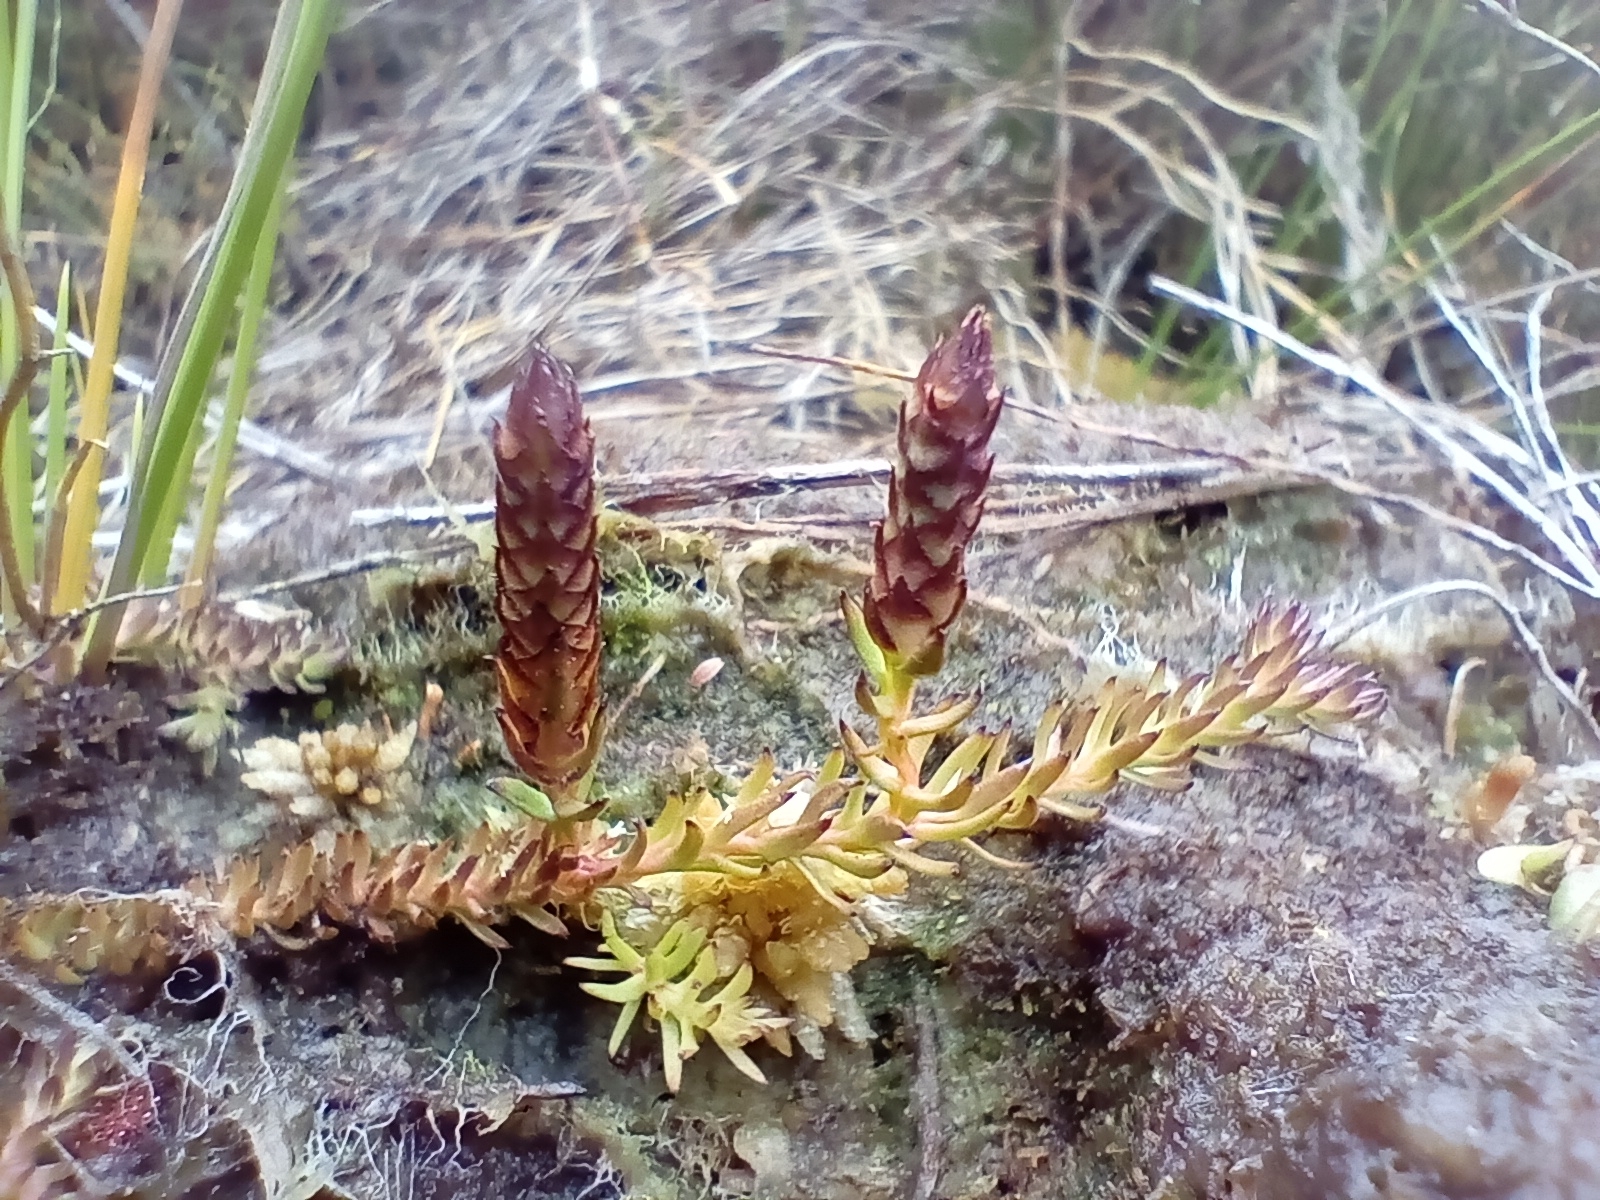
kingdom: Plantae
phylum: Tracheophyta
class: Lycopodiopsida
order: Lycopodiales
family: Lycopodiaceae
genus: Lateristachys
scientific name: Lateristachys diffusa
